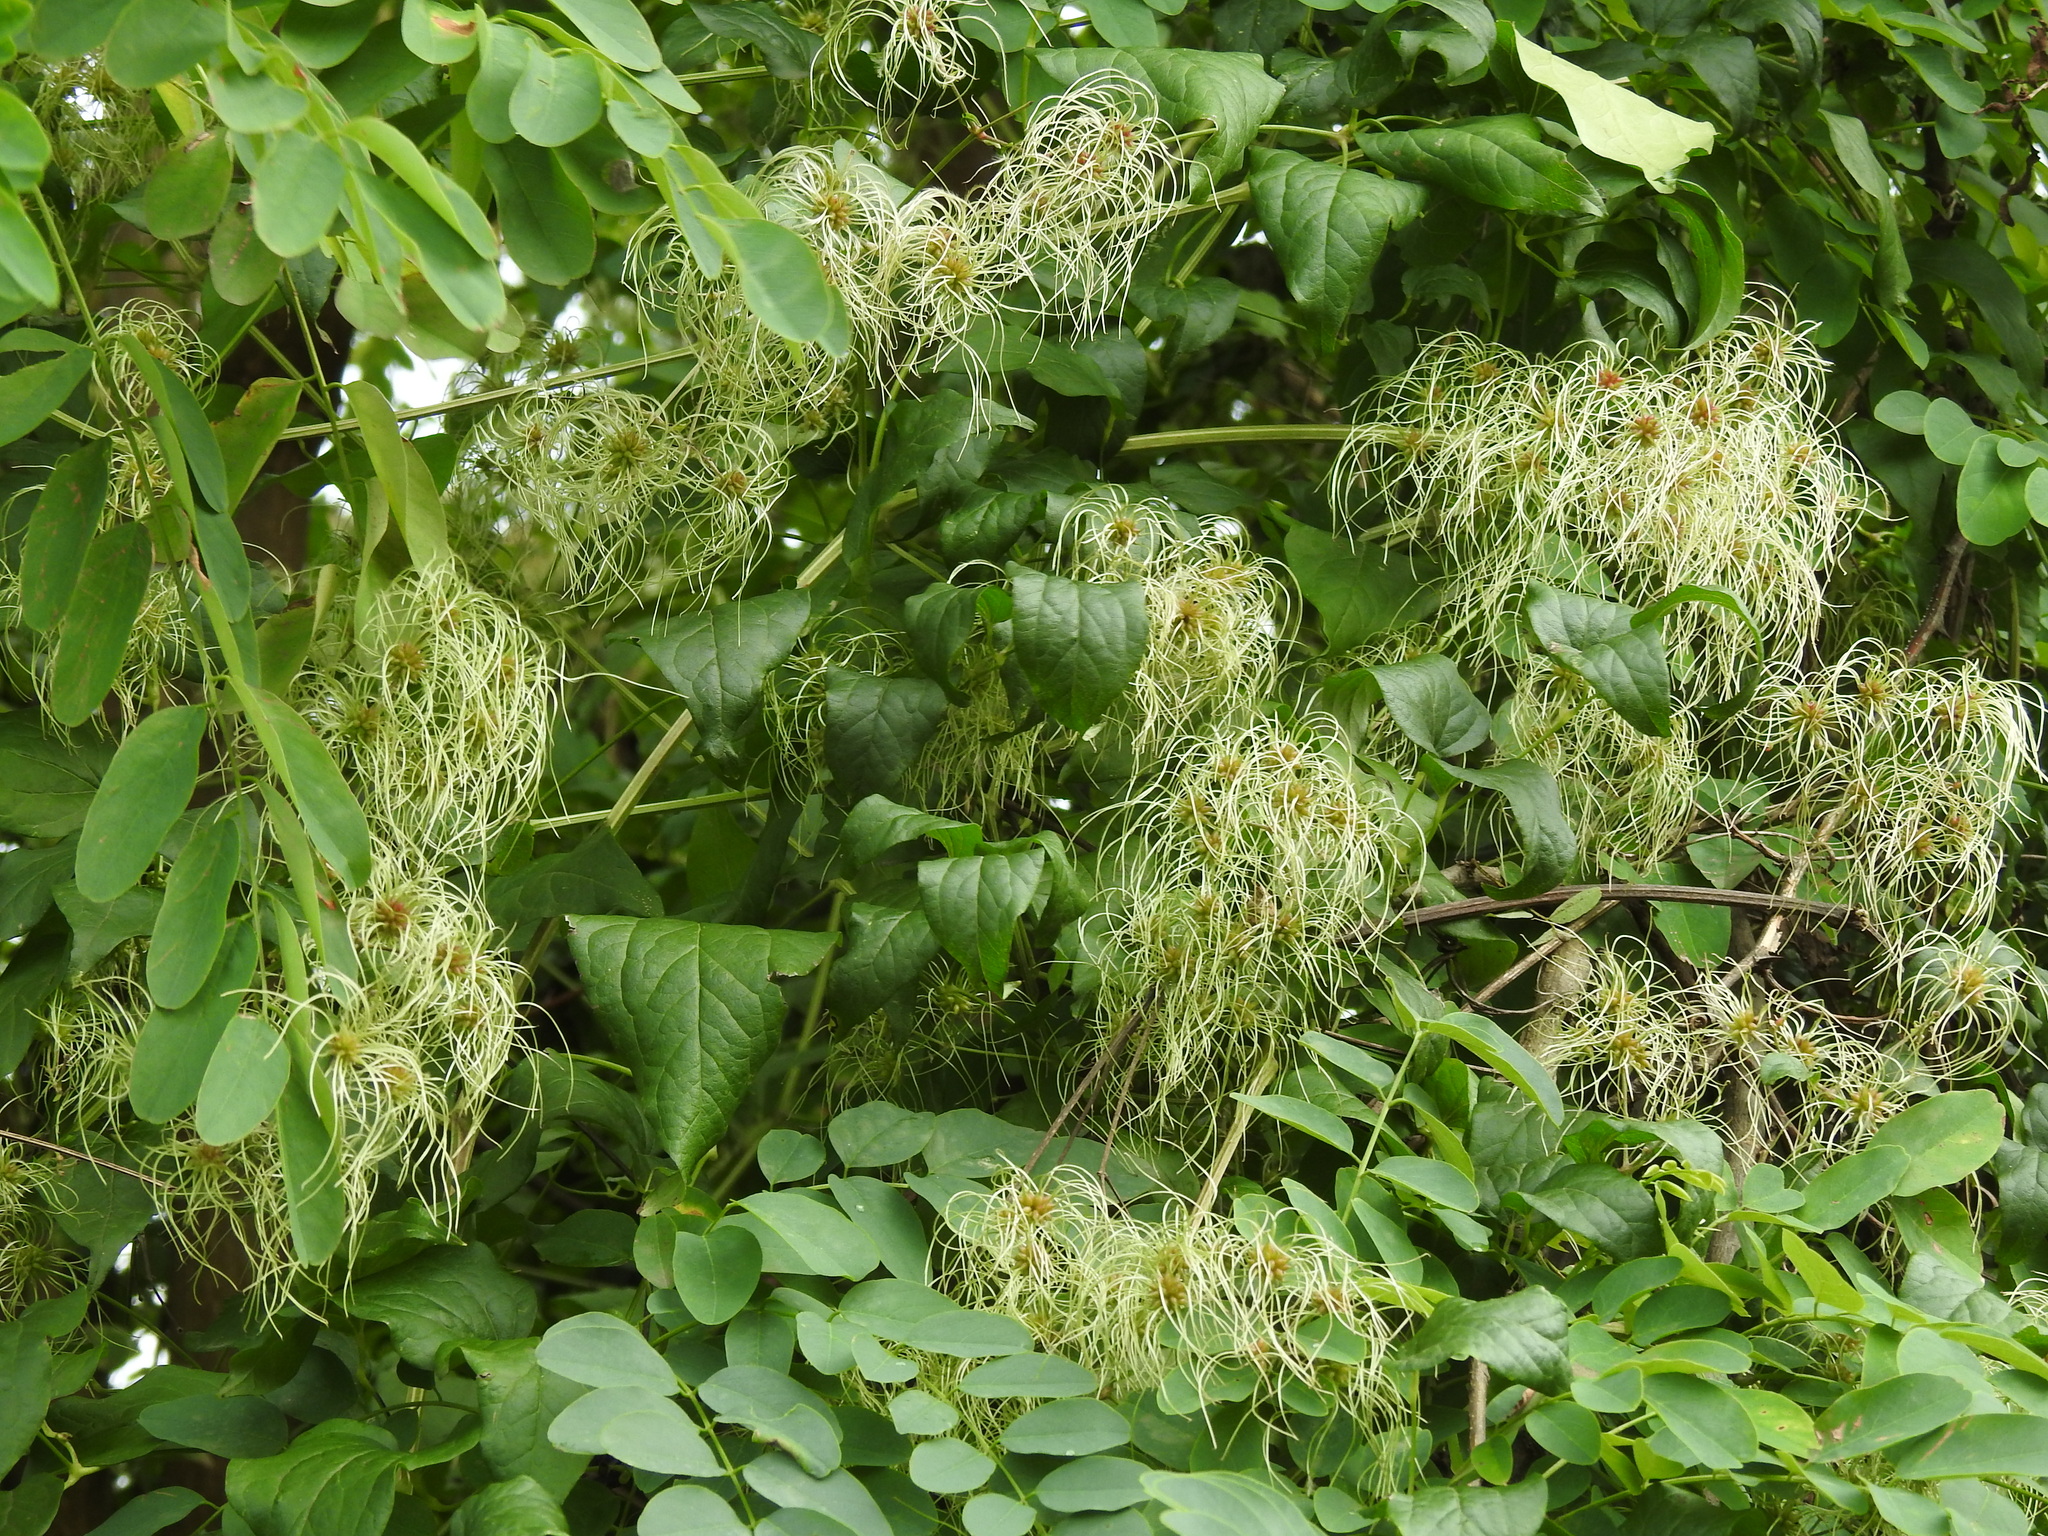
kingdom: Plantae
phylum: Tracheophyta
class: Magnoliopsida
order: Ranunculales
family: Ranunculaceae
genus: Clematis
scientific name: Clematis vitalba
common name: Evergreen clematis
